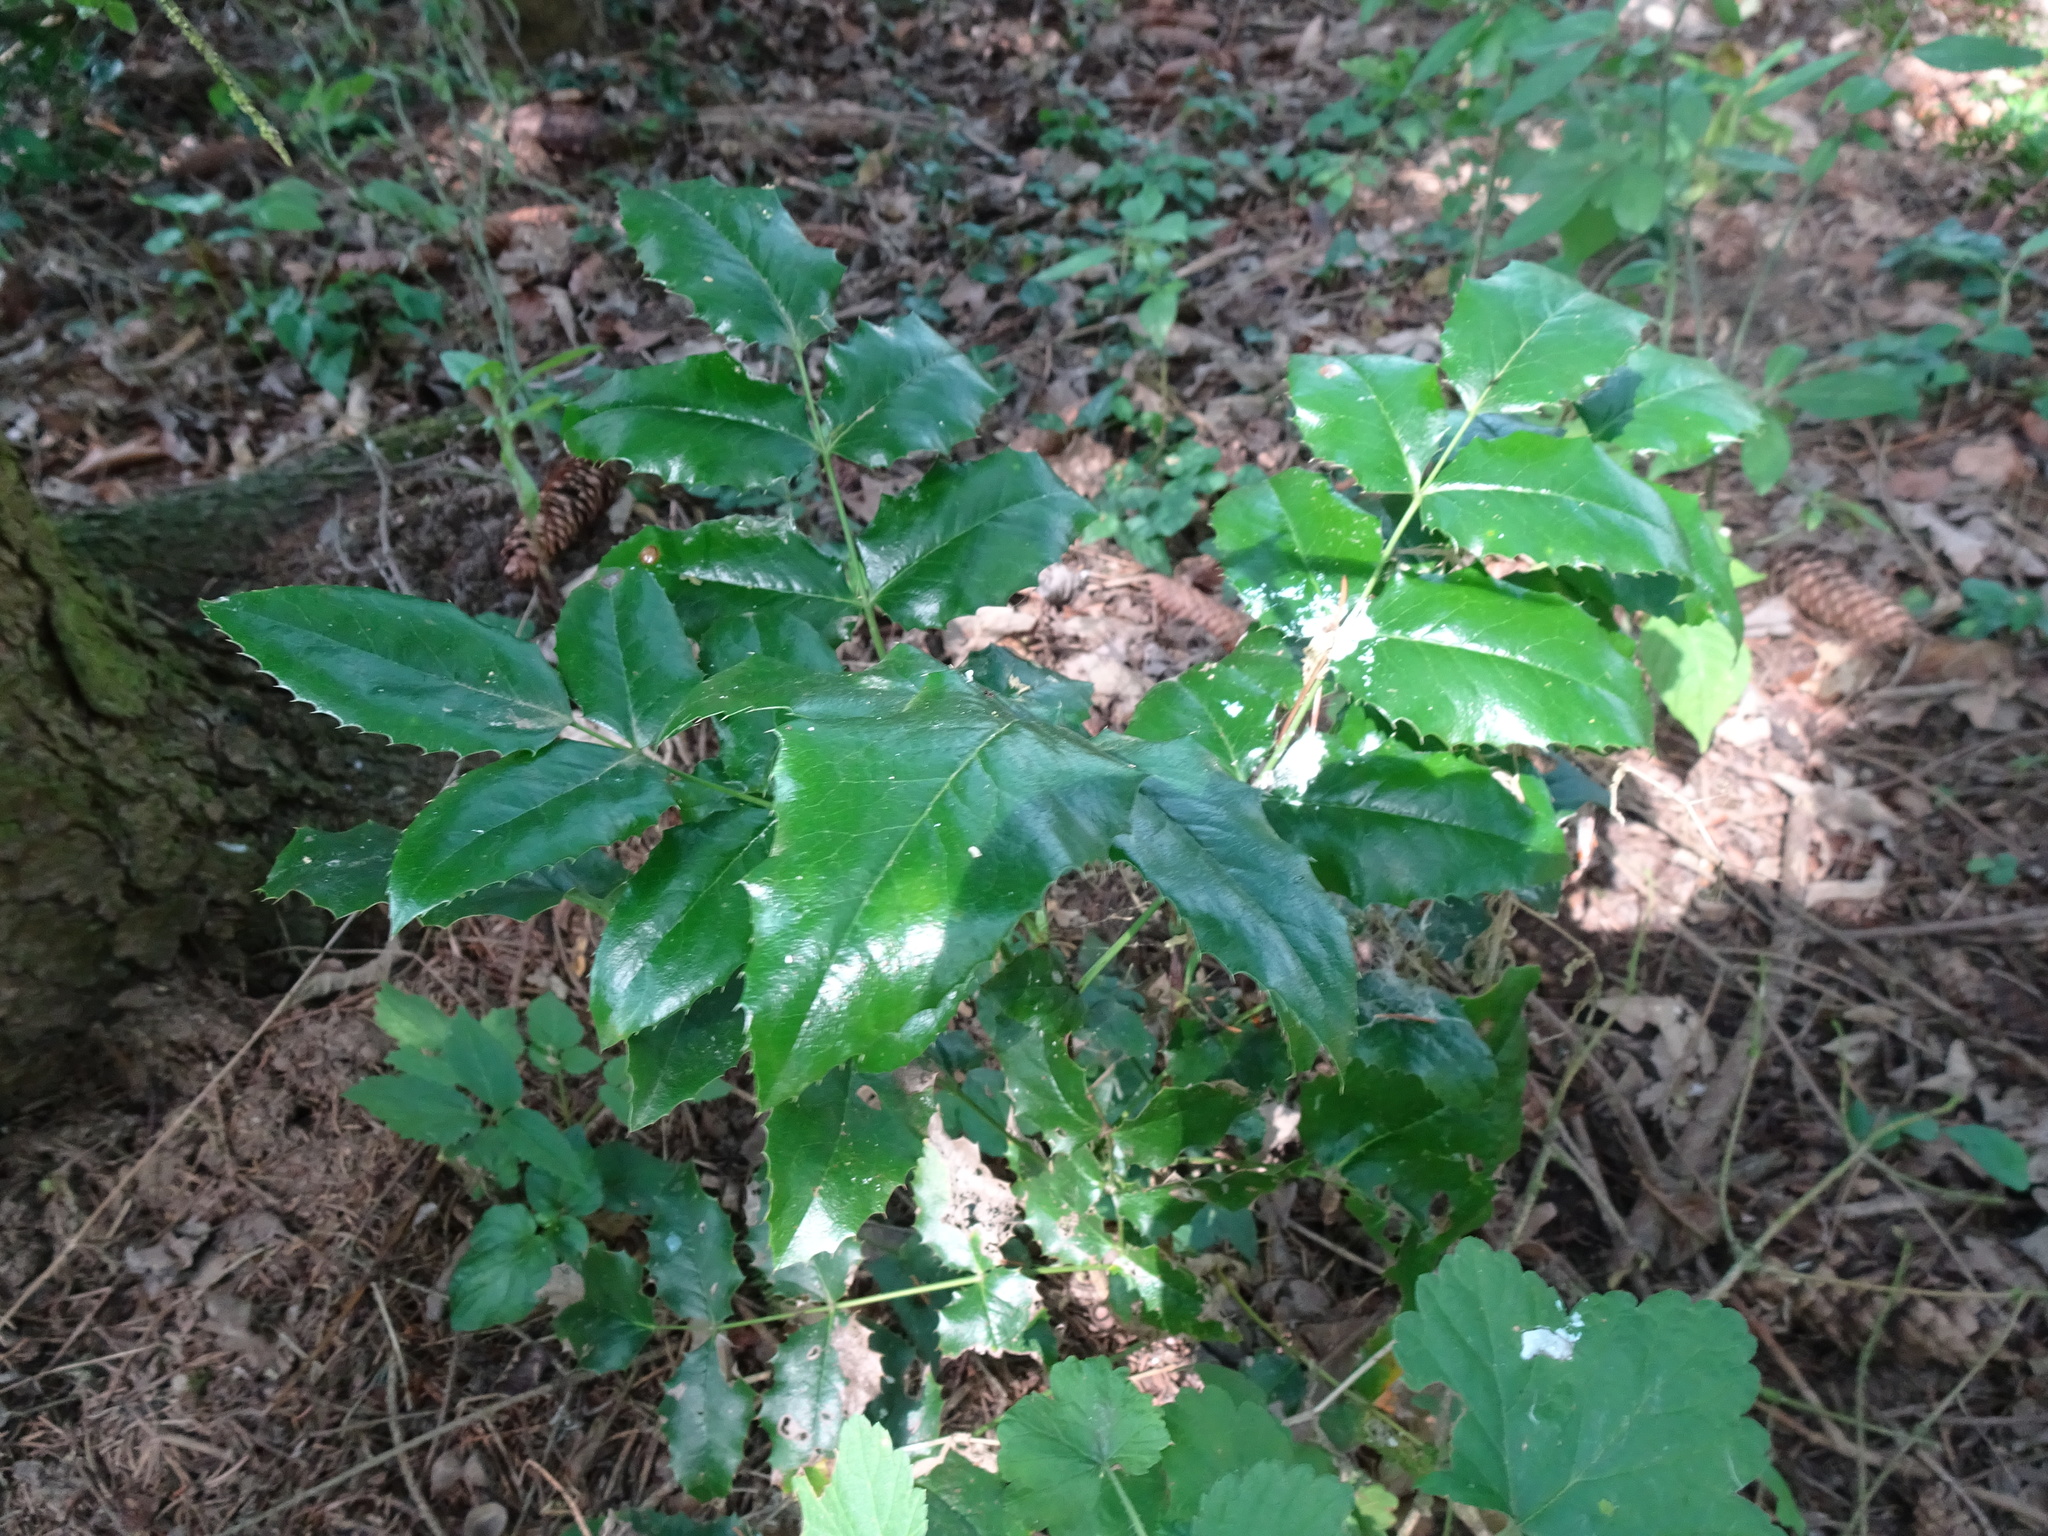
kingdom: Plantae
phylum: Tracheophyta
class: Magnoliopsida
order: Ranunculales
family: Berberidaceae
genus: Mahonia
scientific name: Mahonia aquifolium
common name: Oregon-grape
